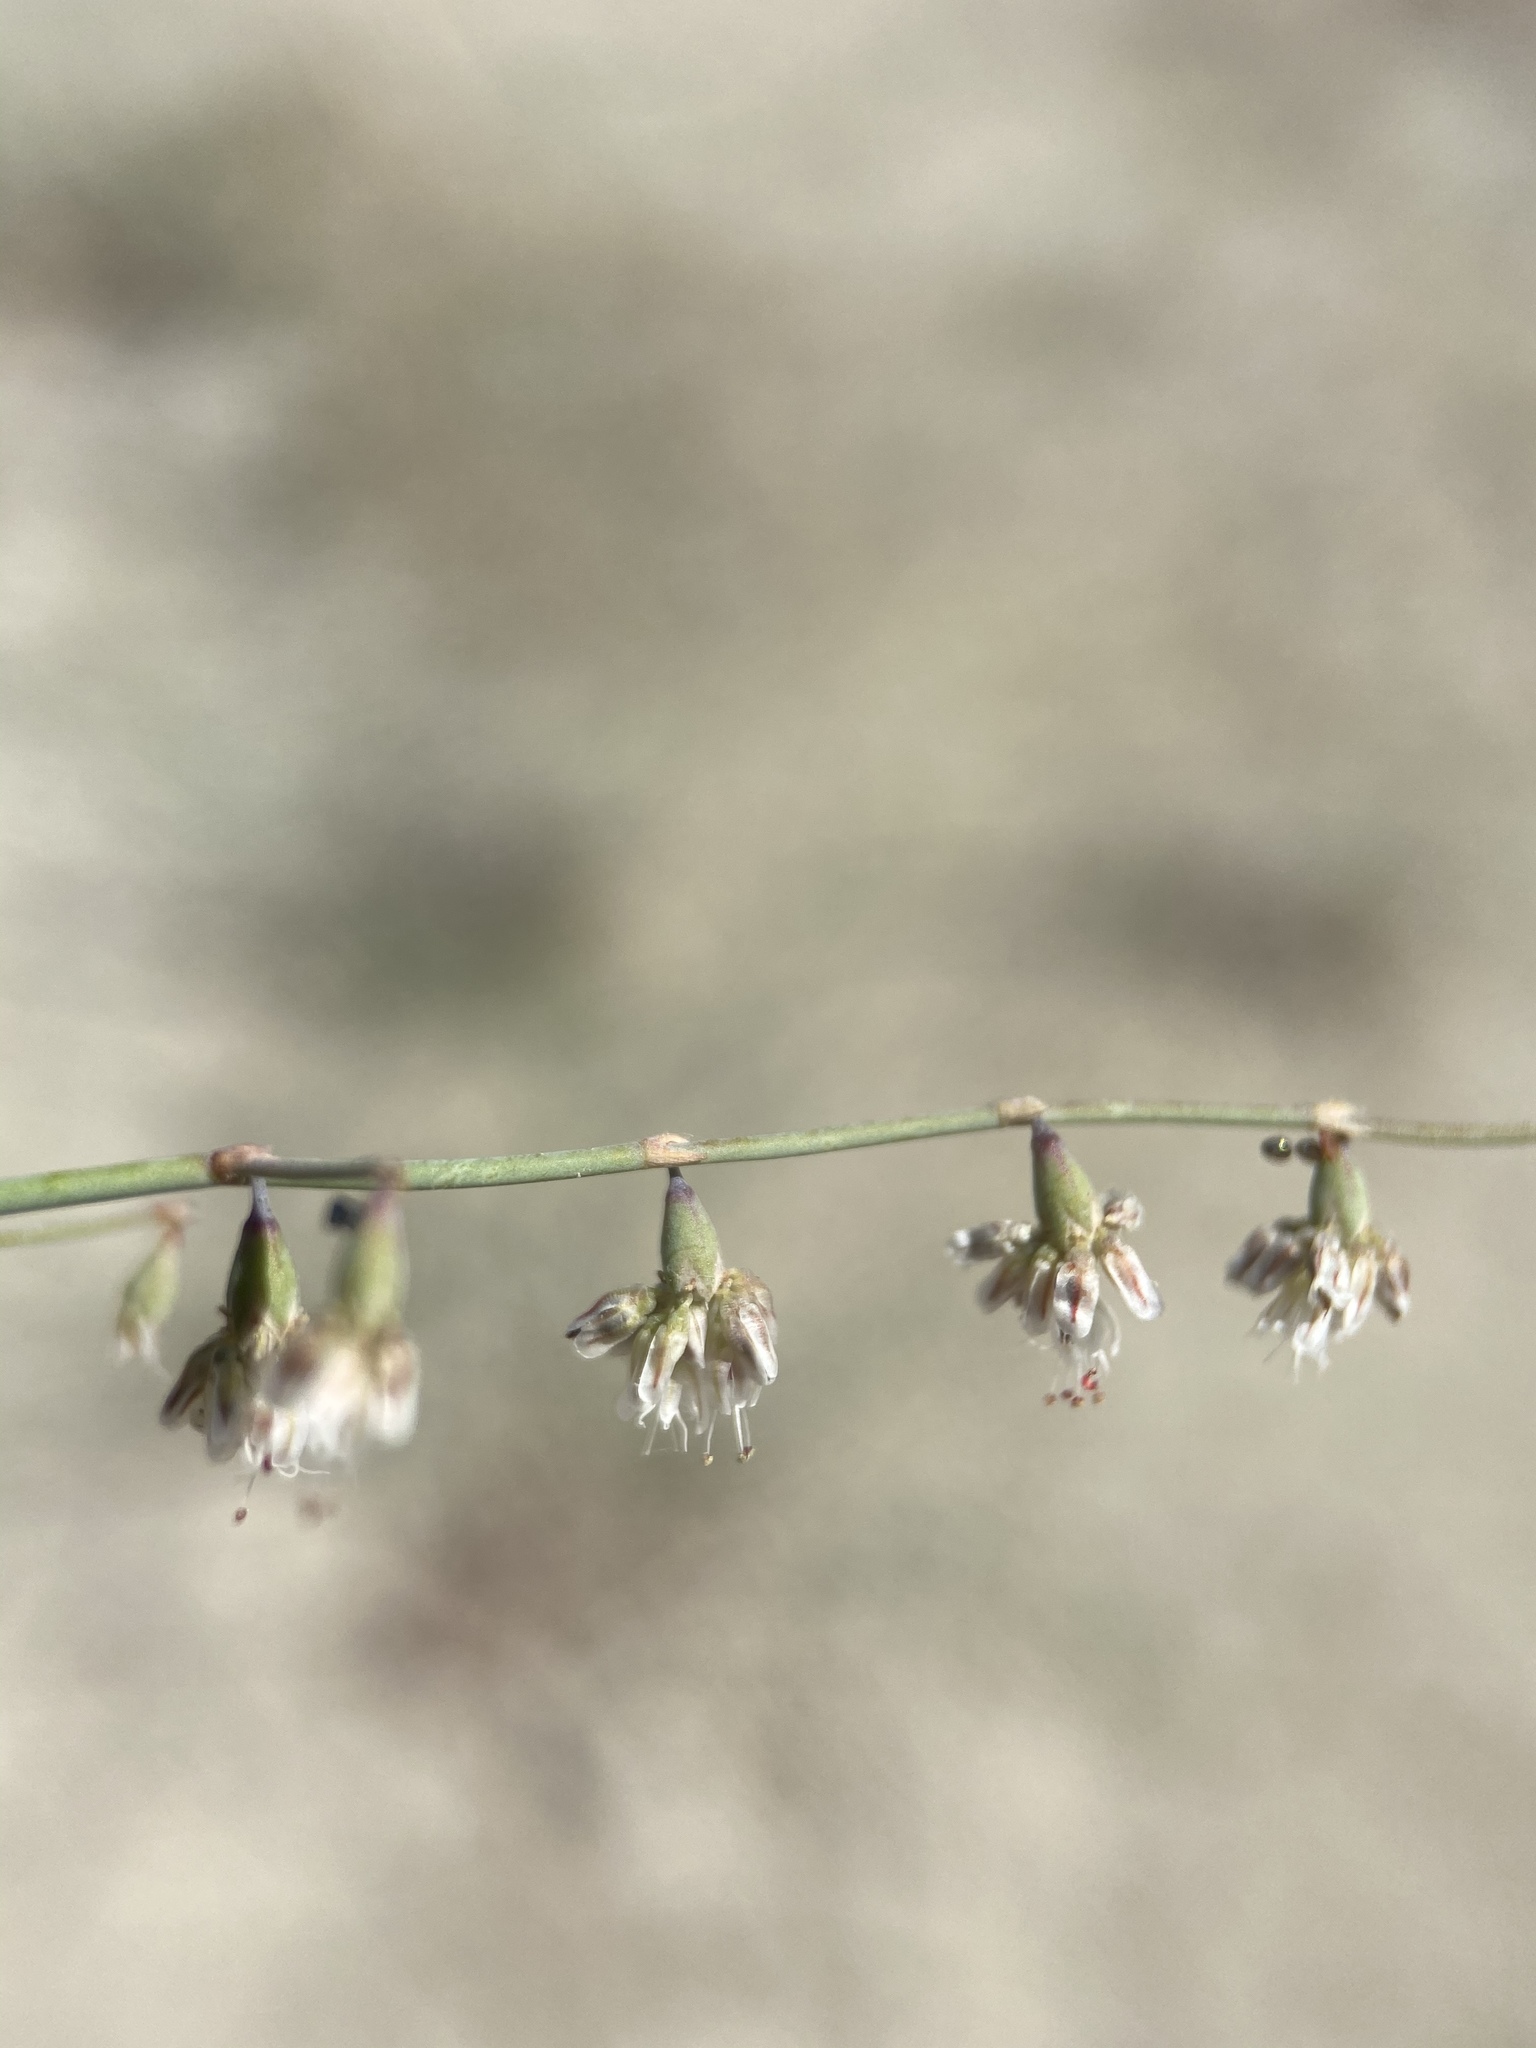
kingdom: Plantae
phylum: Tracheophyta
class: Magnoliopsida
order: Caryophyllales
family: Polygonaceae
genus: Eriogonum
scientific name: Eriogonum deflexum
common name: Skeleton-weed
